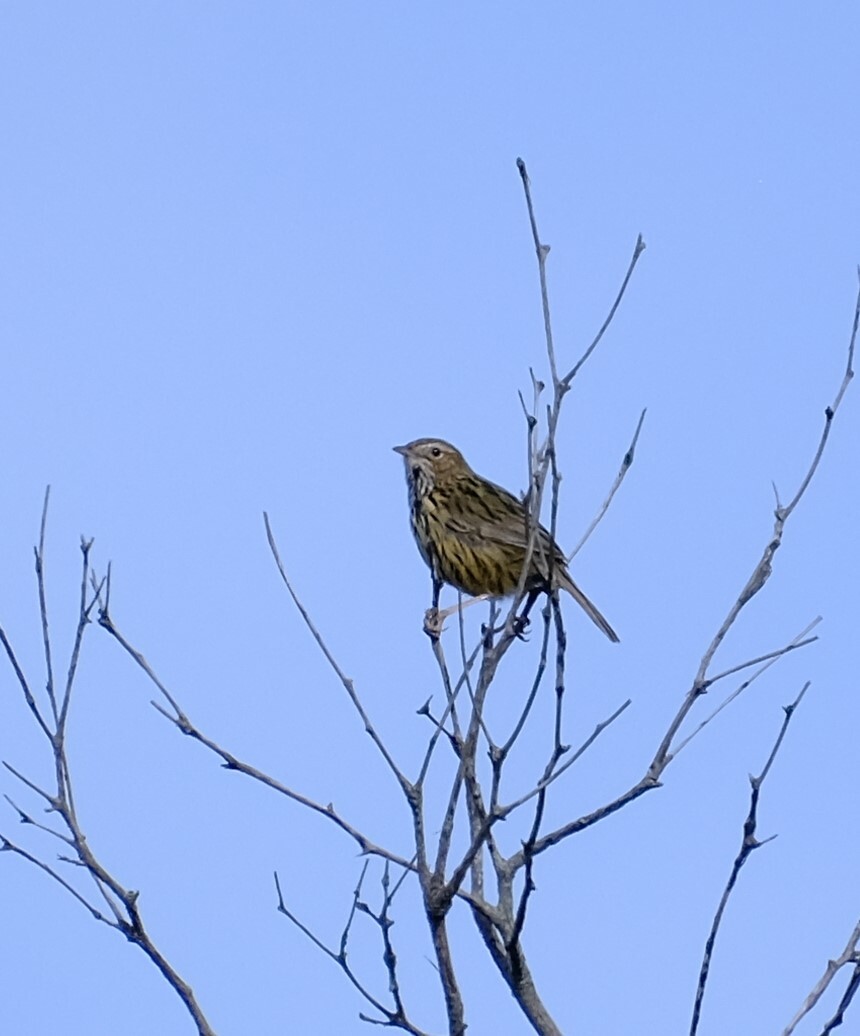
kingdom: Animalia
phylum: Chordata
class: Aves
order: Passeriformes
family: Acanthizidae
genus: Calamanthus
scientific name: Calamanthus fuliginosus
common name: Striated fieldwren
